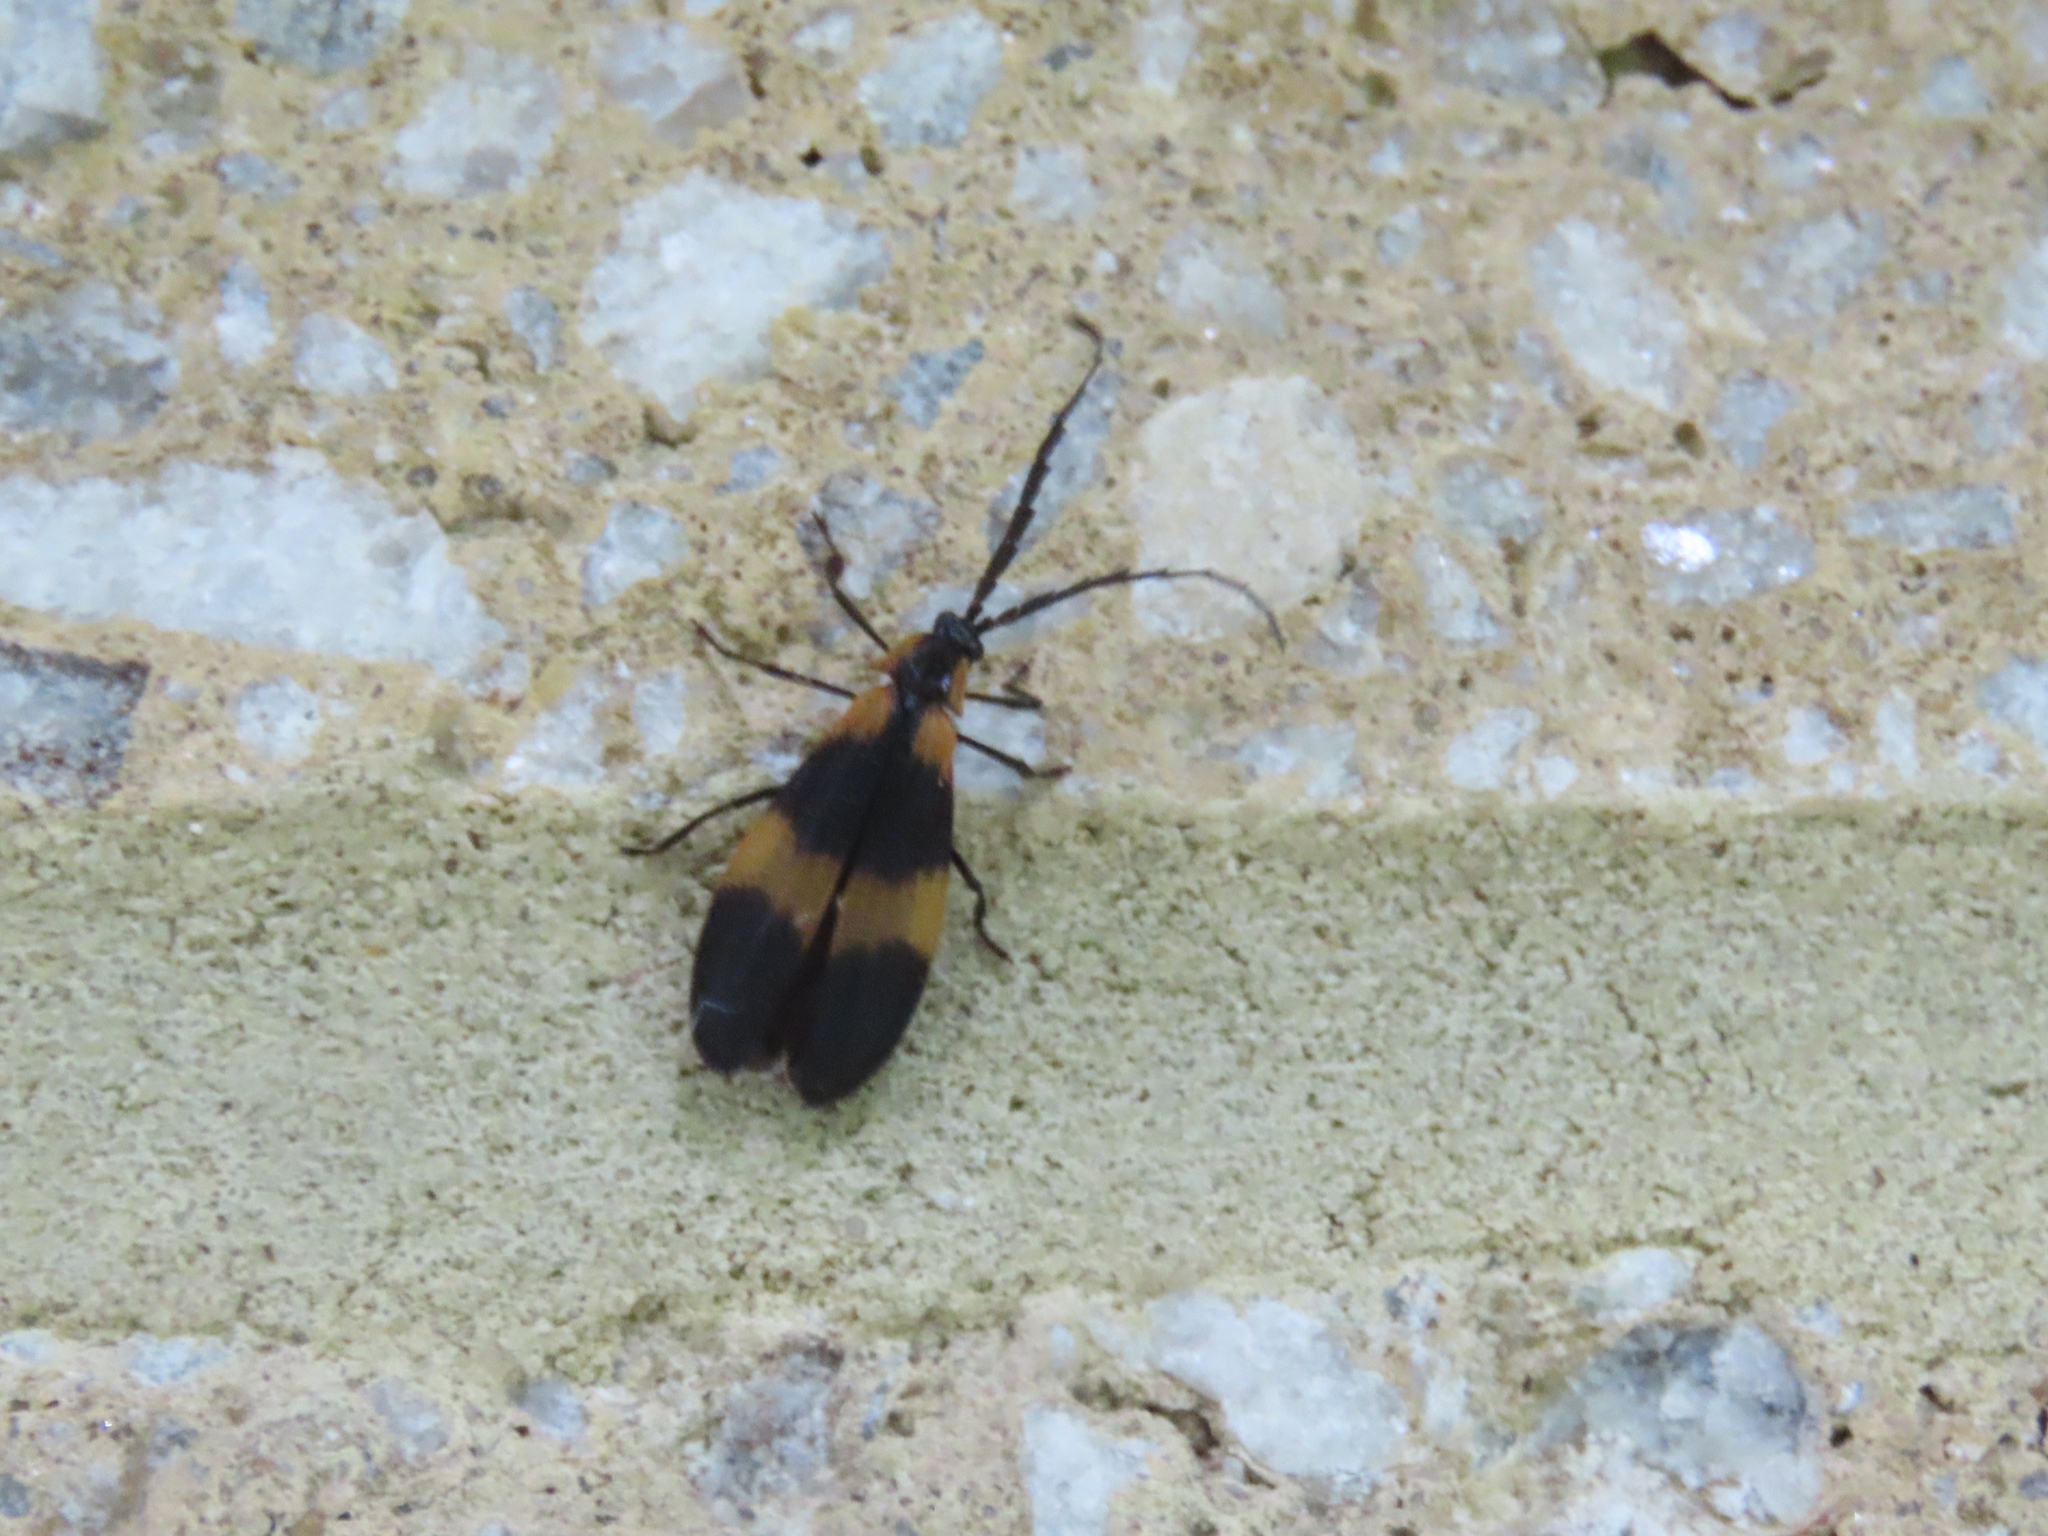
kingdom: Animalia
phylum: Arthropoda
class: Insecta
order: Coleoptera
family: Lycidae
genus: Calopteron
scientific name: Calopteron reticulatum
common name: Banded net-winged beetle
